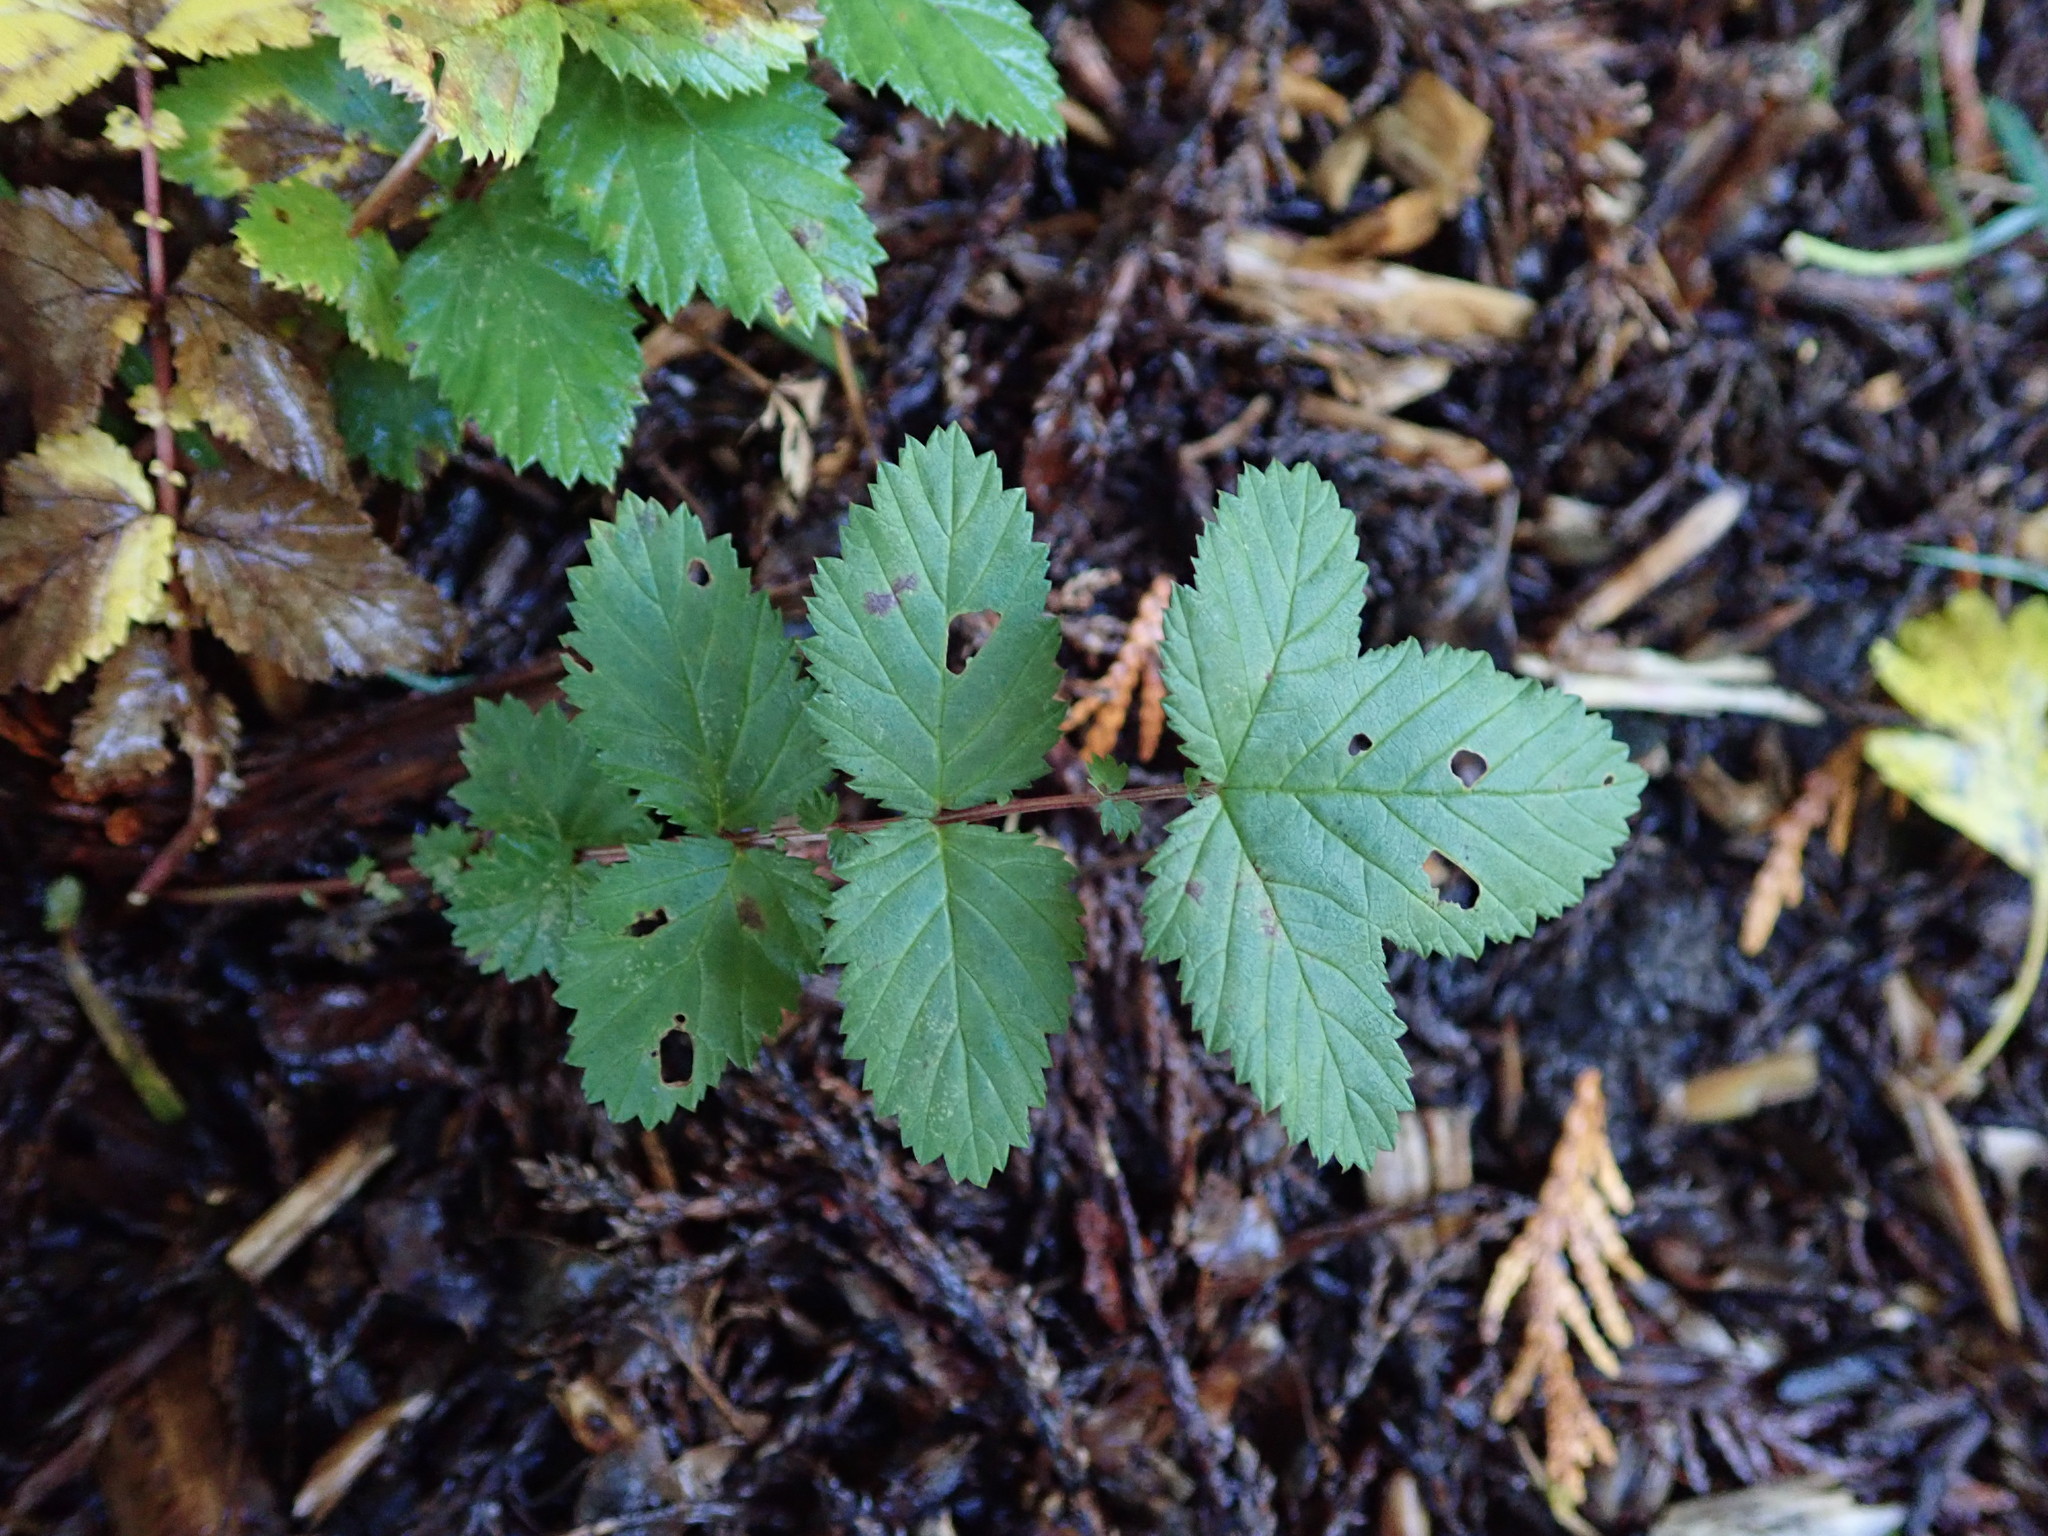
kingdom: Plantae
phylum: Tracheophyta
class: Magnoliopsida
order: Rosales
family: Rosaceae
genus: Filipendula
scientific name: Filipendula ulmaria
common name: Meadowsweet
